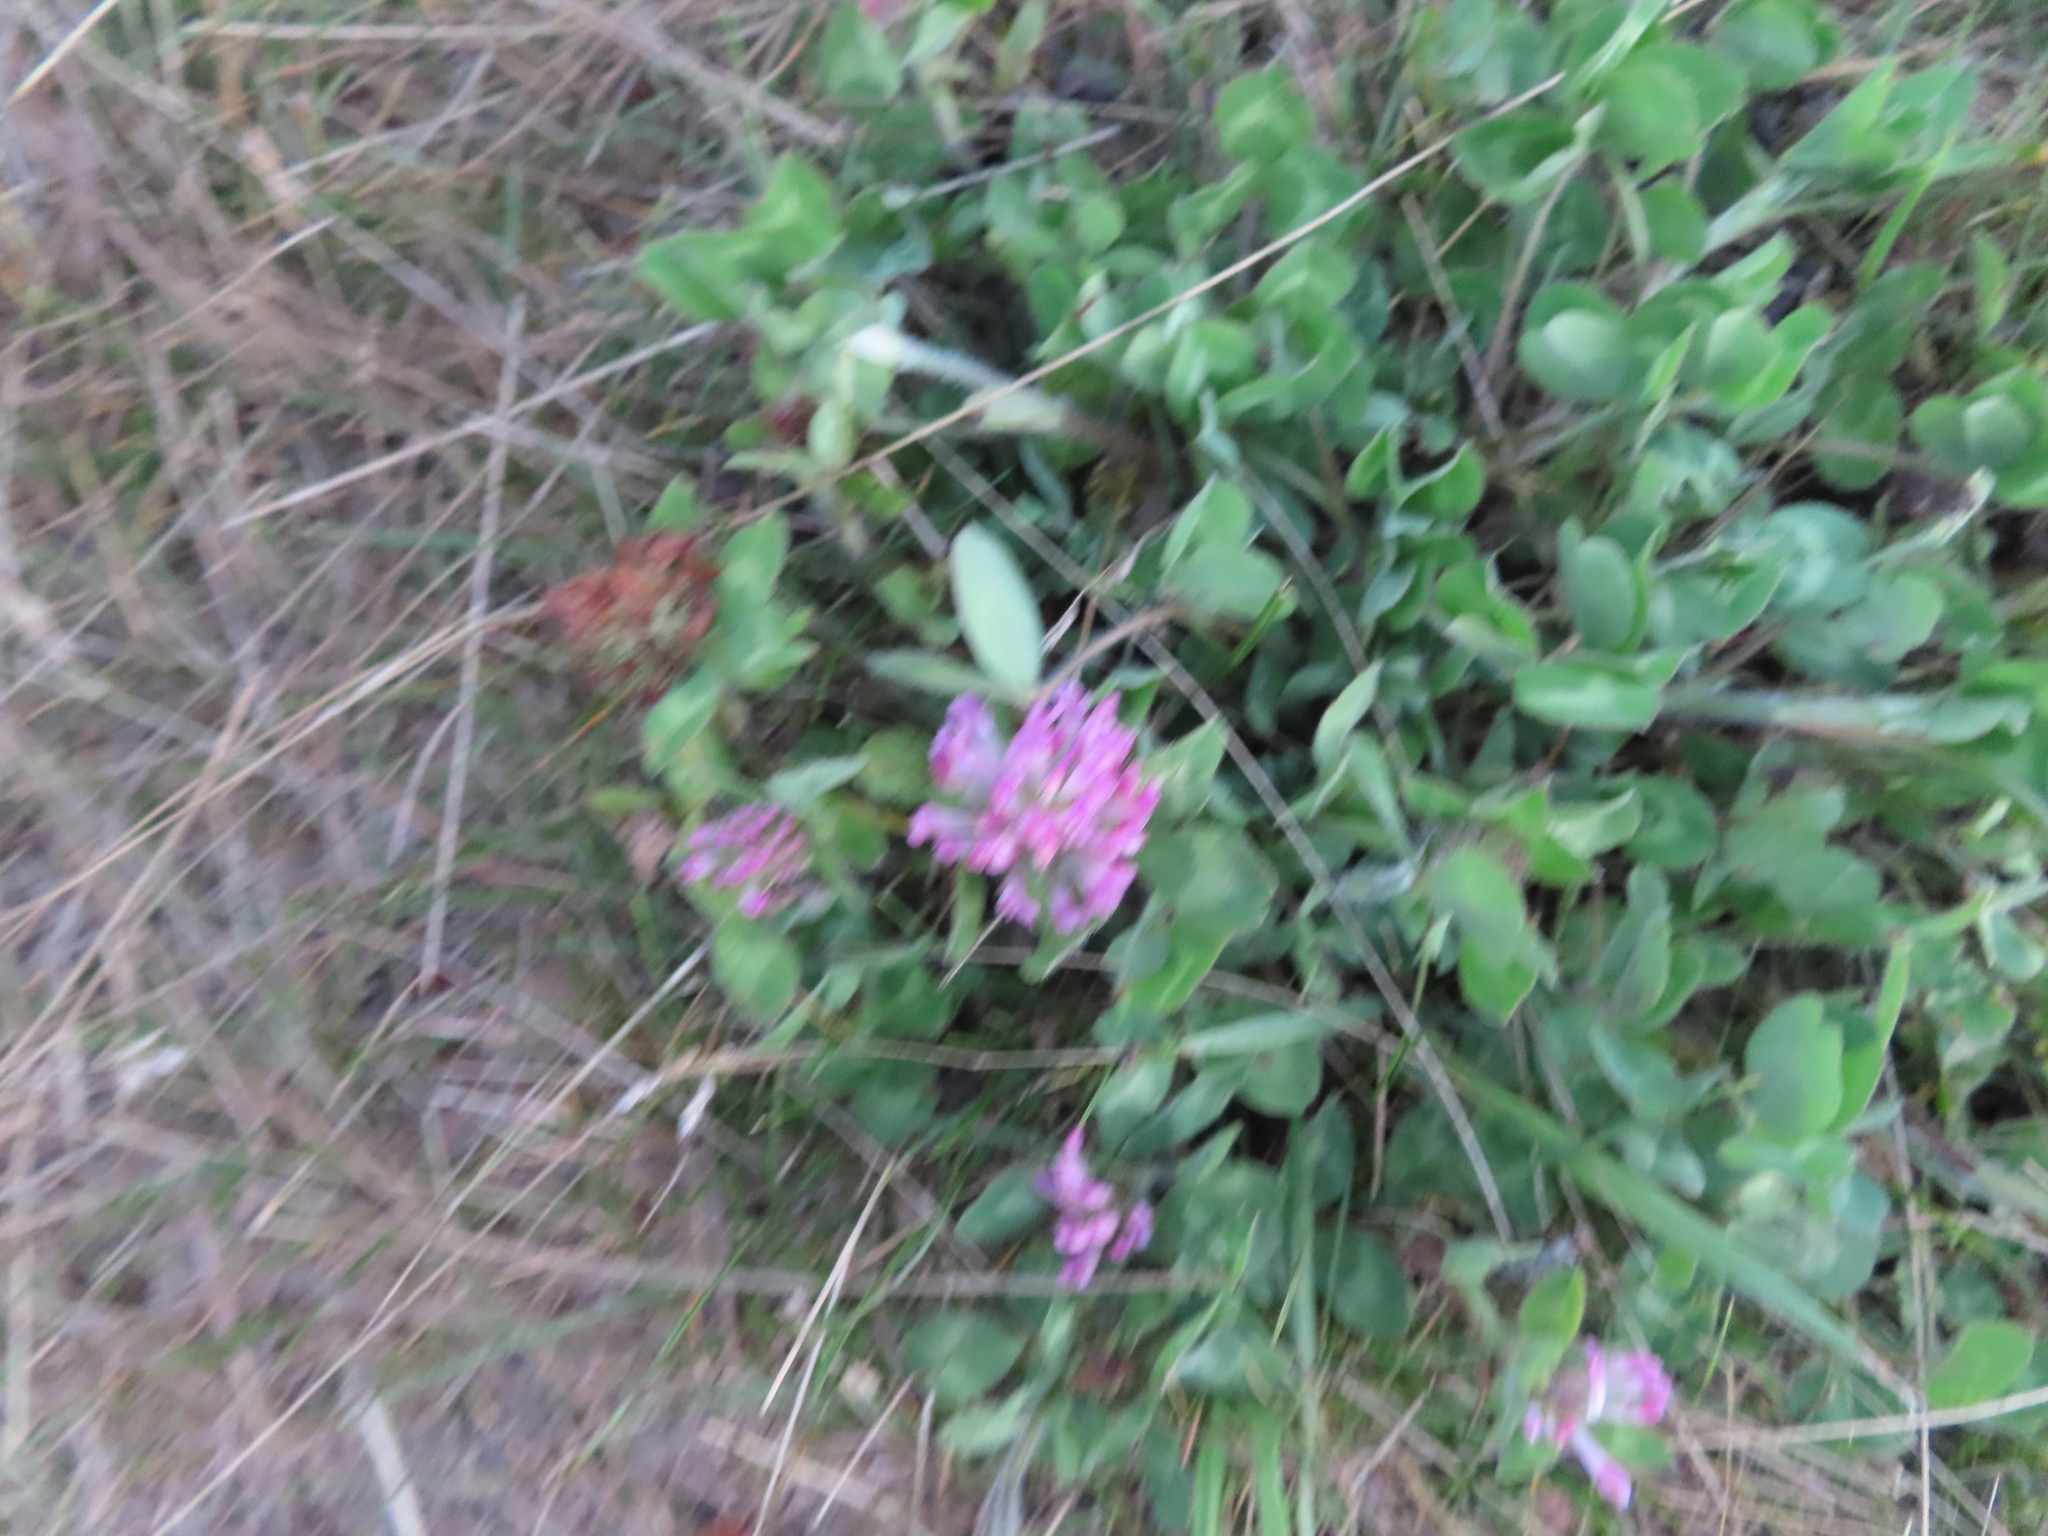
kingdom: Plantae
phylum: Tracheophyta
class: Magnoliopsida
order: Fabales
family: Fabaceae
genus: Trifolium
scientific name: Trifolium pratense
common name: Red clover
